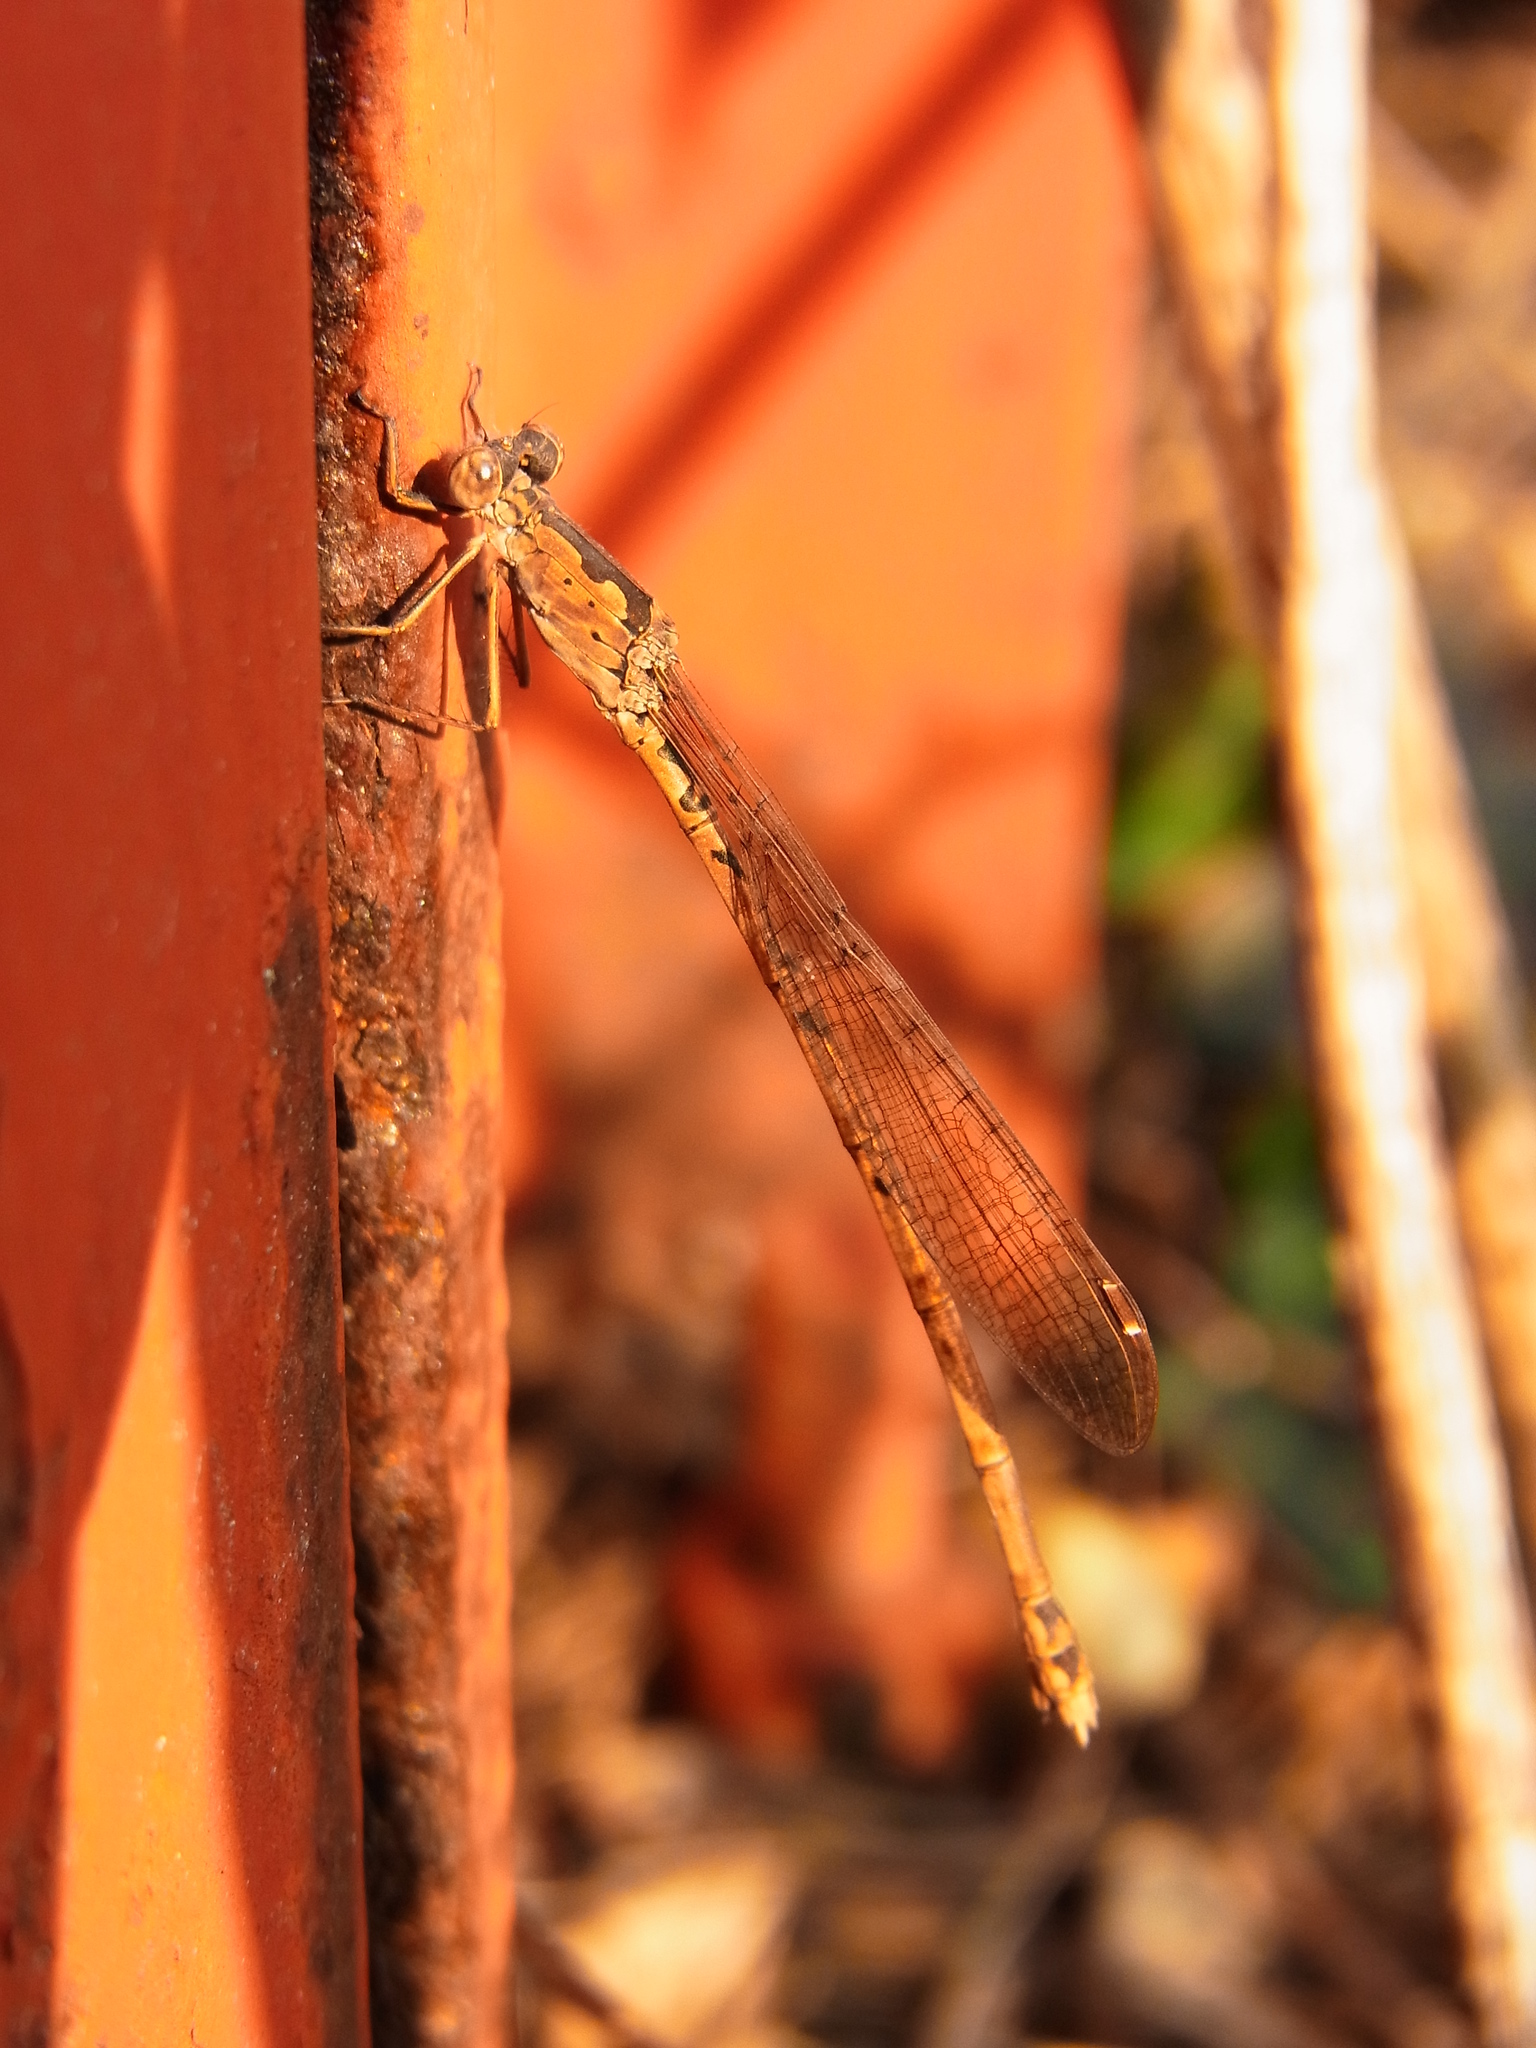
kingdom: Animalia
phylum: Arthropoda
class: Insecta
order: Odonata
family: Lestidae
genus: Indolestes
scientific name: Indolestes peregrinus
